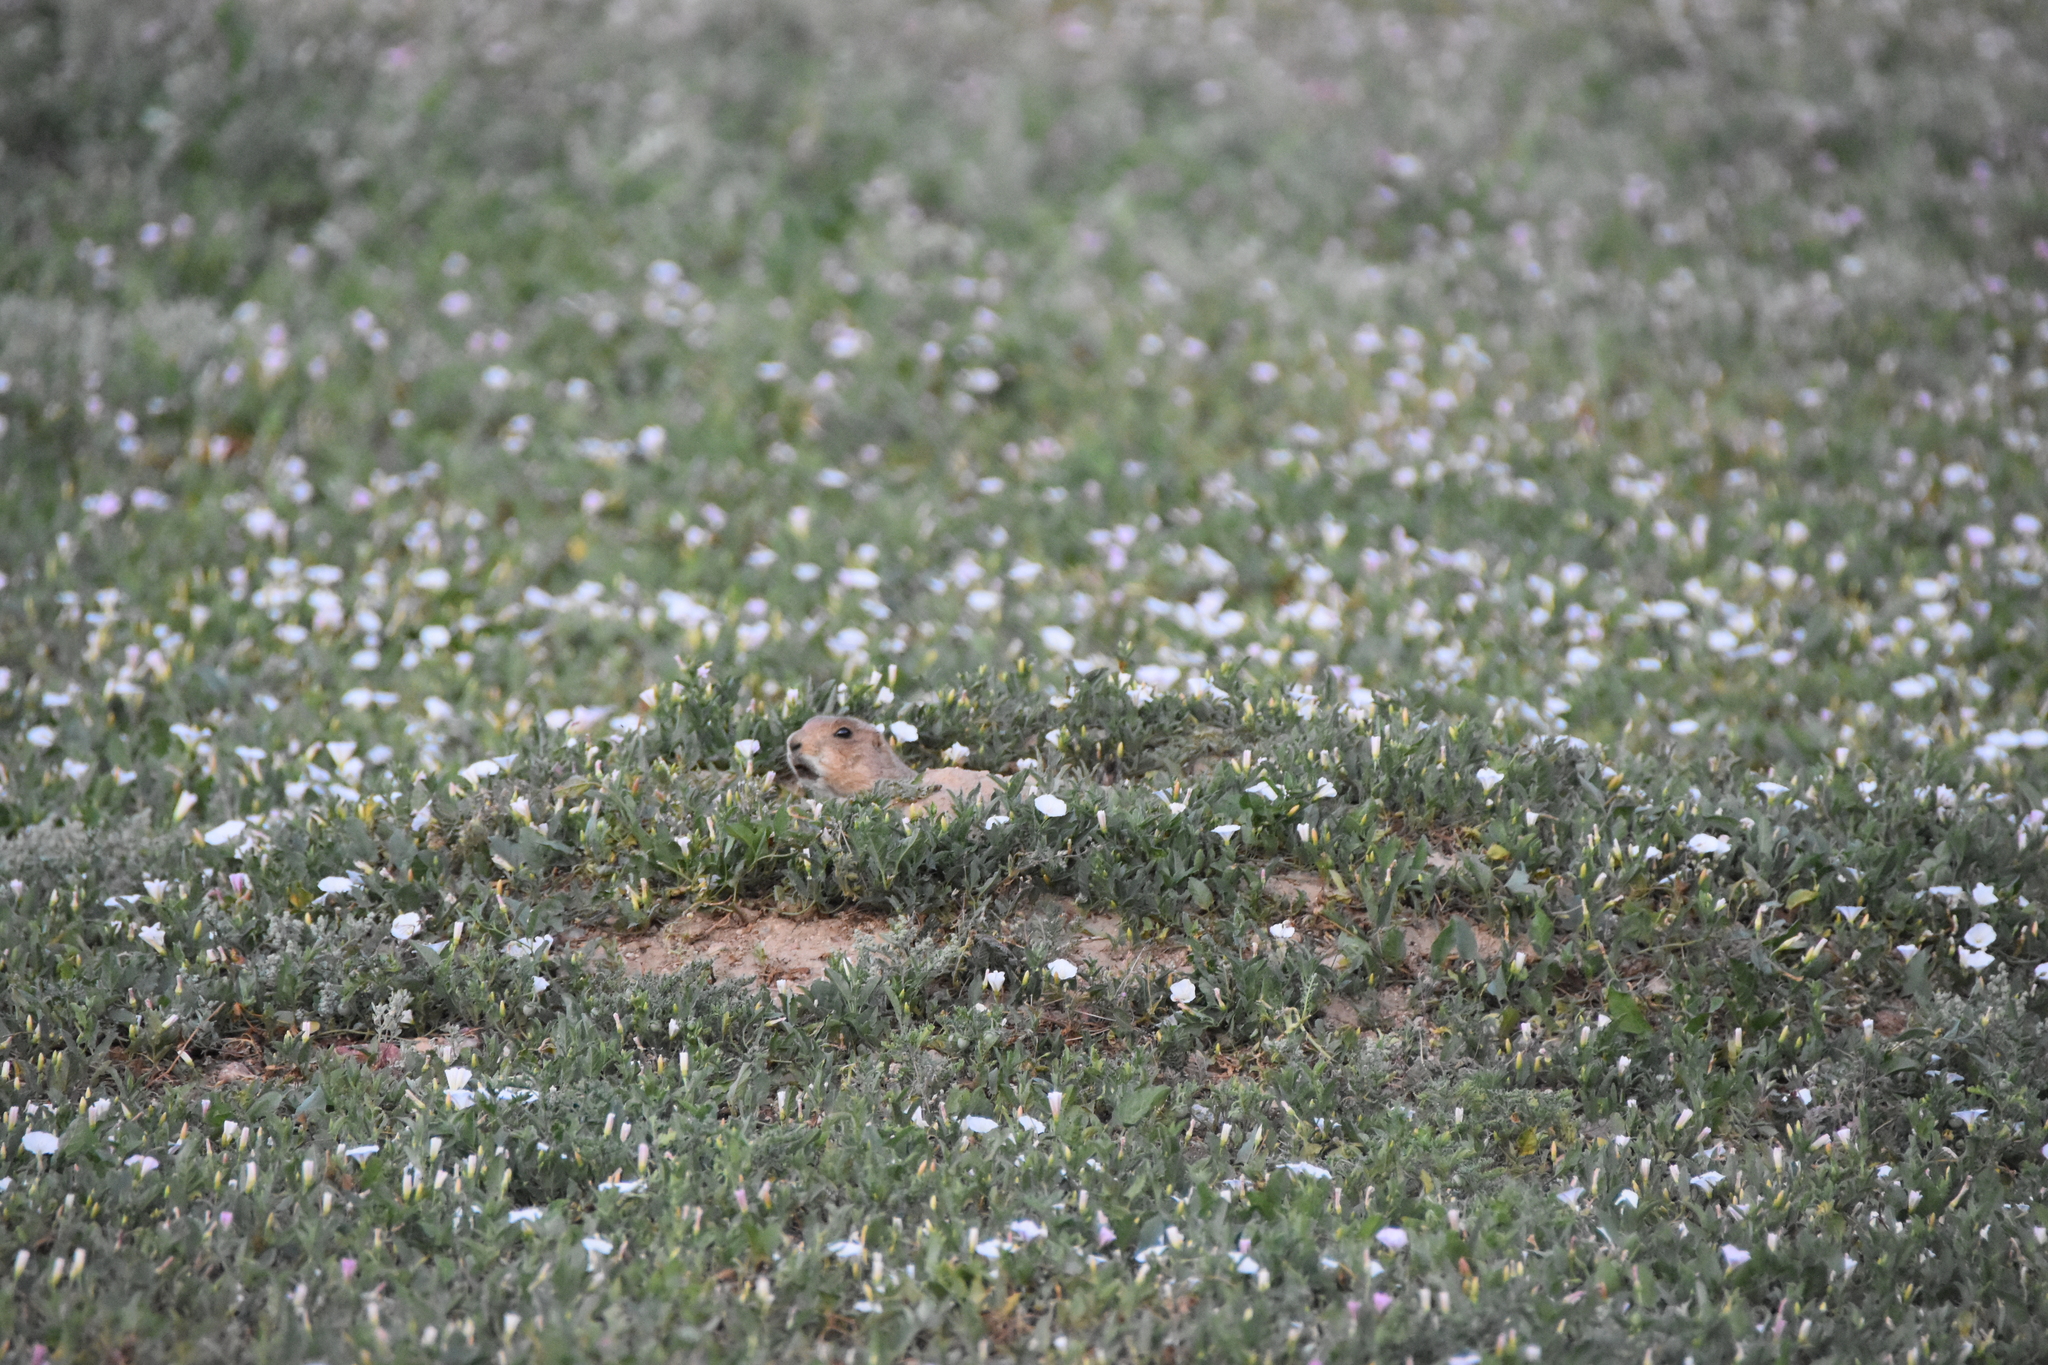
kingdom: Animalia
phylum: Chordata
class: Mammalia
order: Rodentia
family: Sciuridae
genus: Cynomys
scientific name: Cynomys ludovicianus
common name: Black-tailed prairie dog
